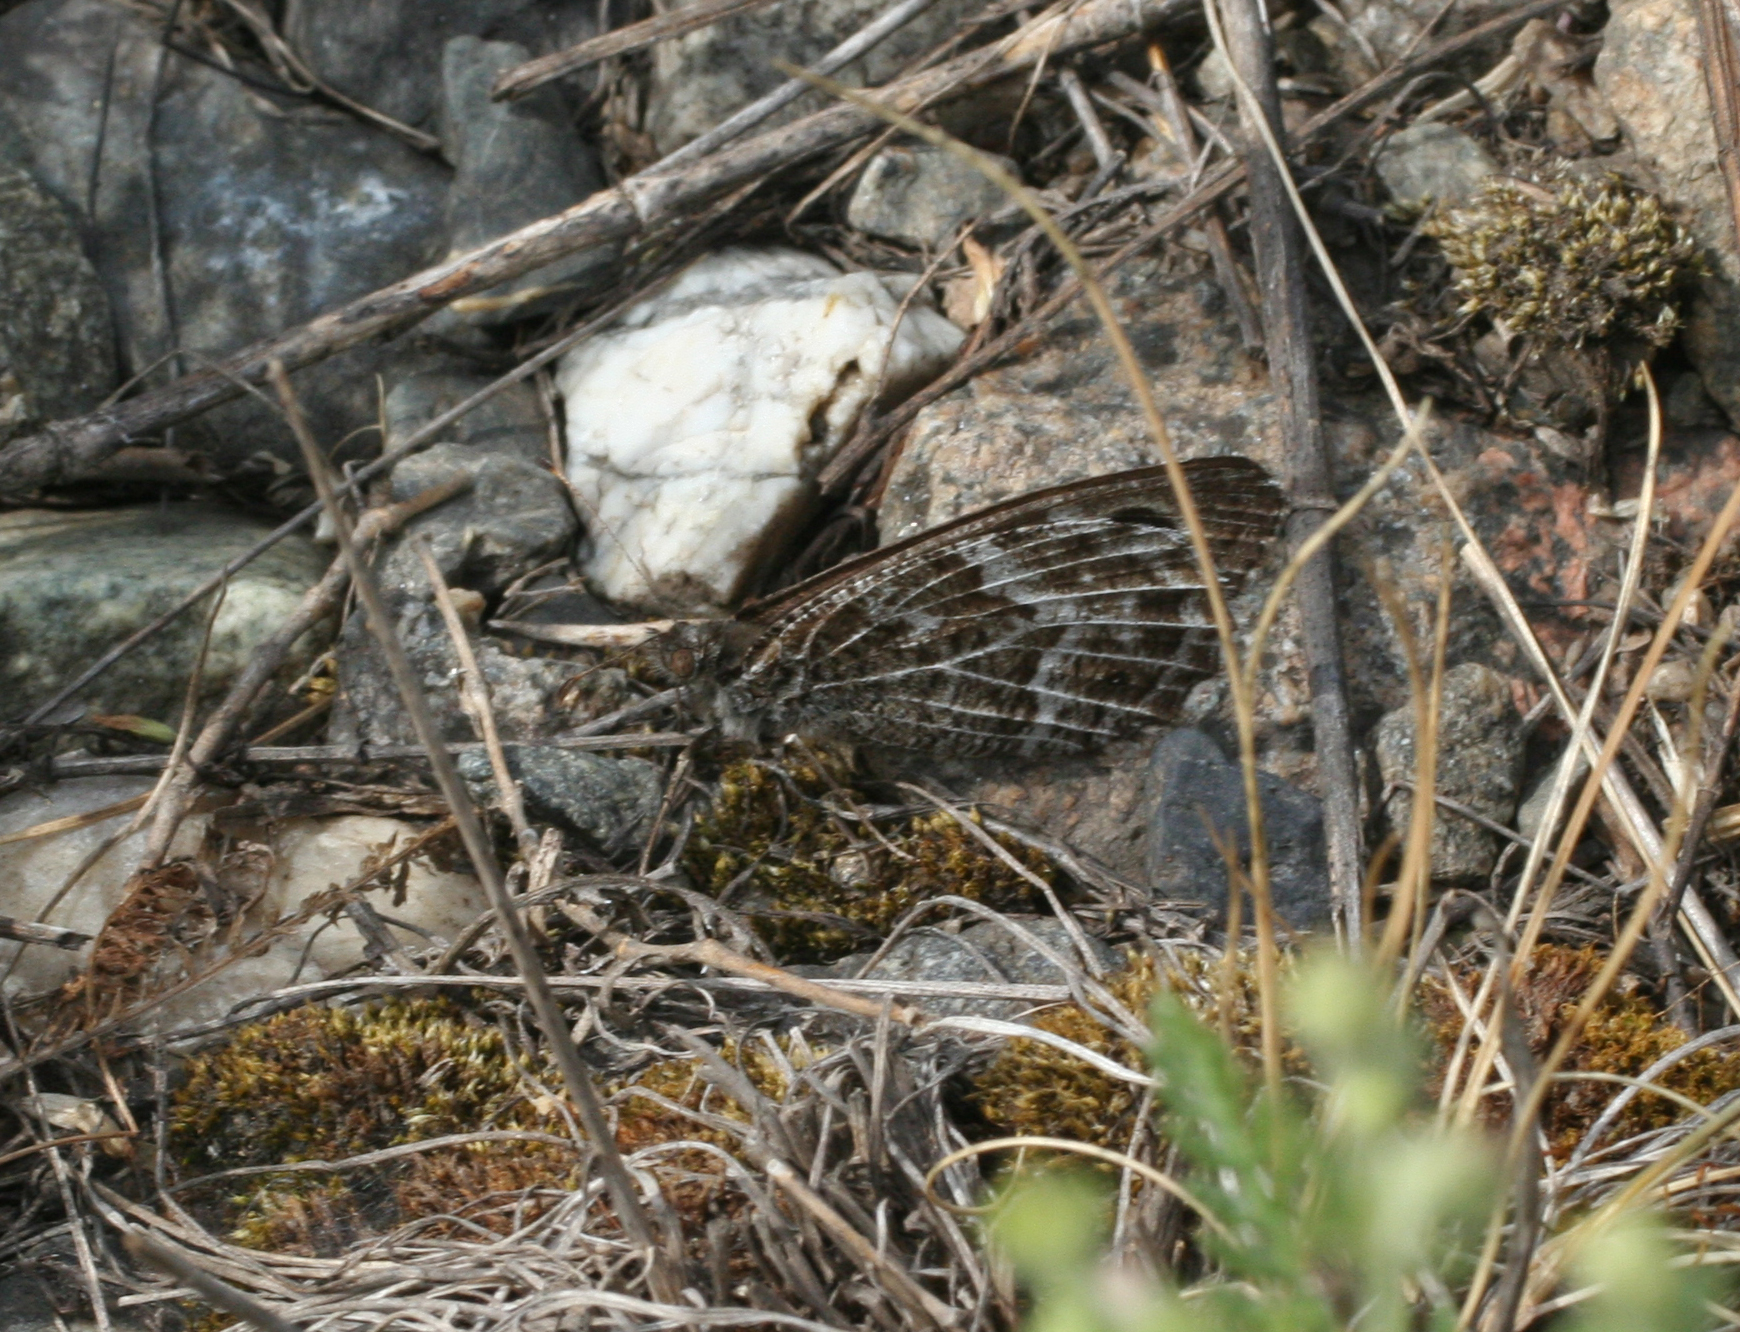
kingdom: Animalia
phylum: Arthropoda
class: Insecta
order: Lepidoptera
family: Nymphalidae
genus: Hipparchia
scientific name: Hipparchia autonoe
